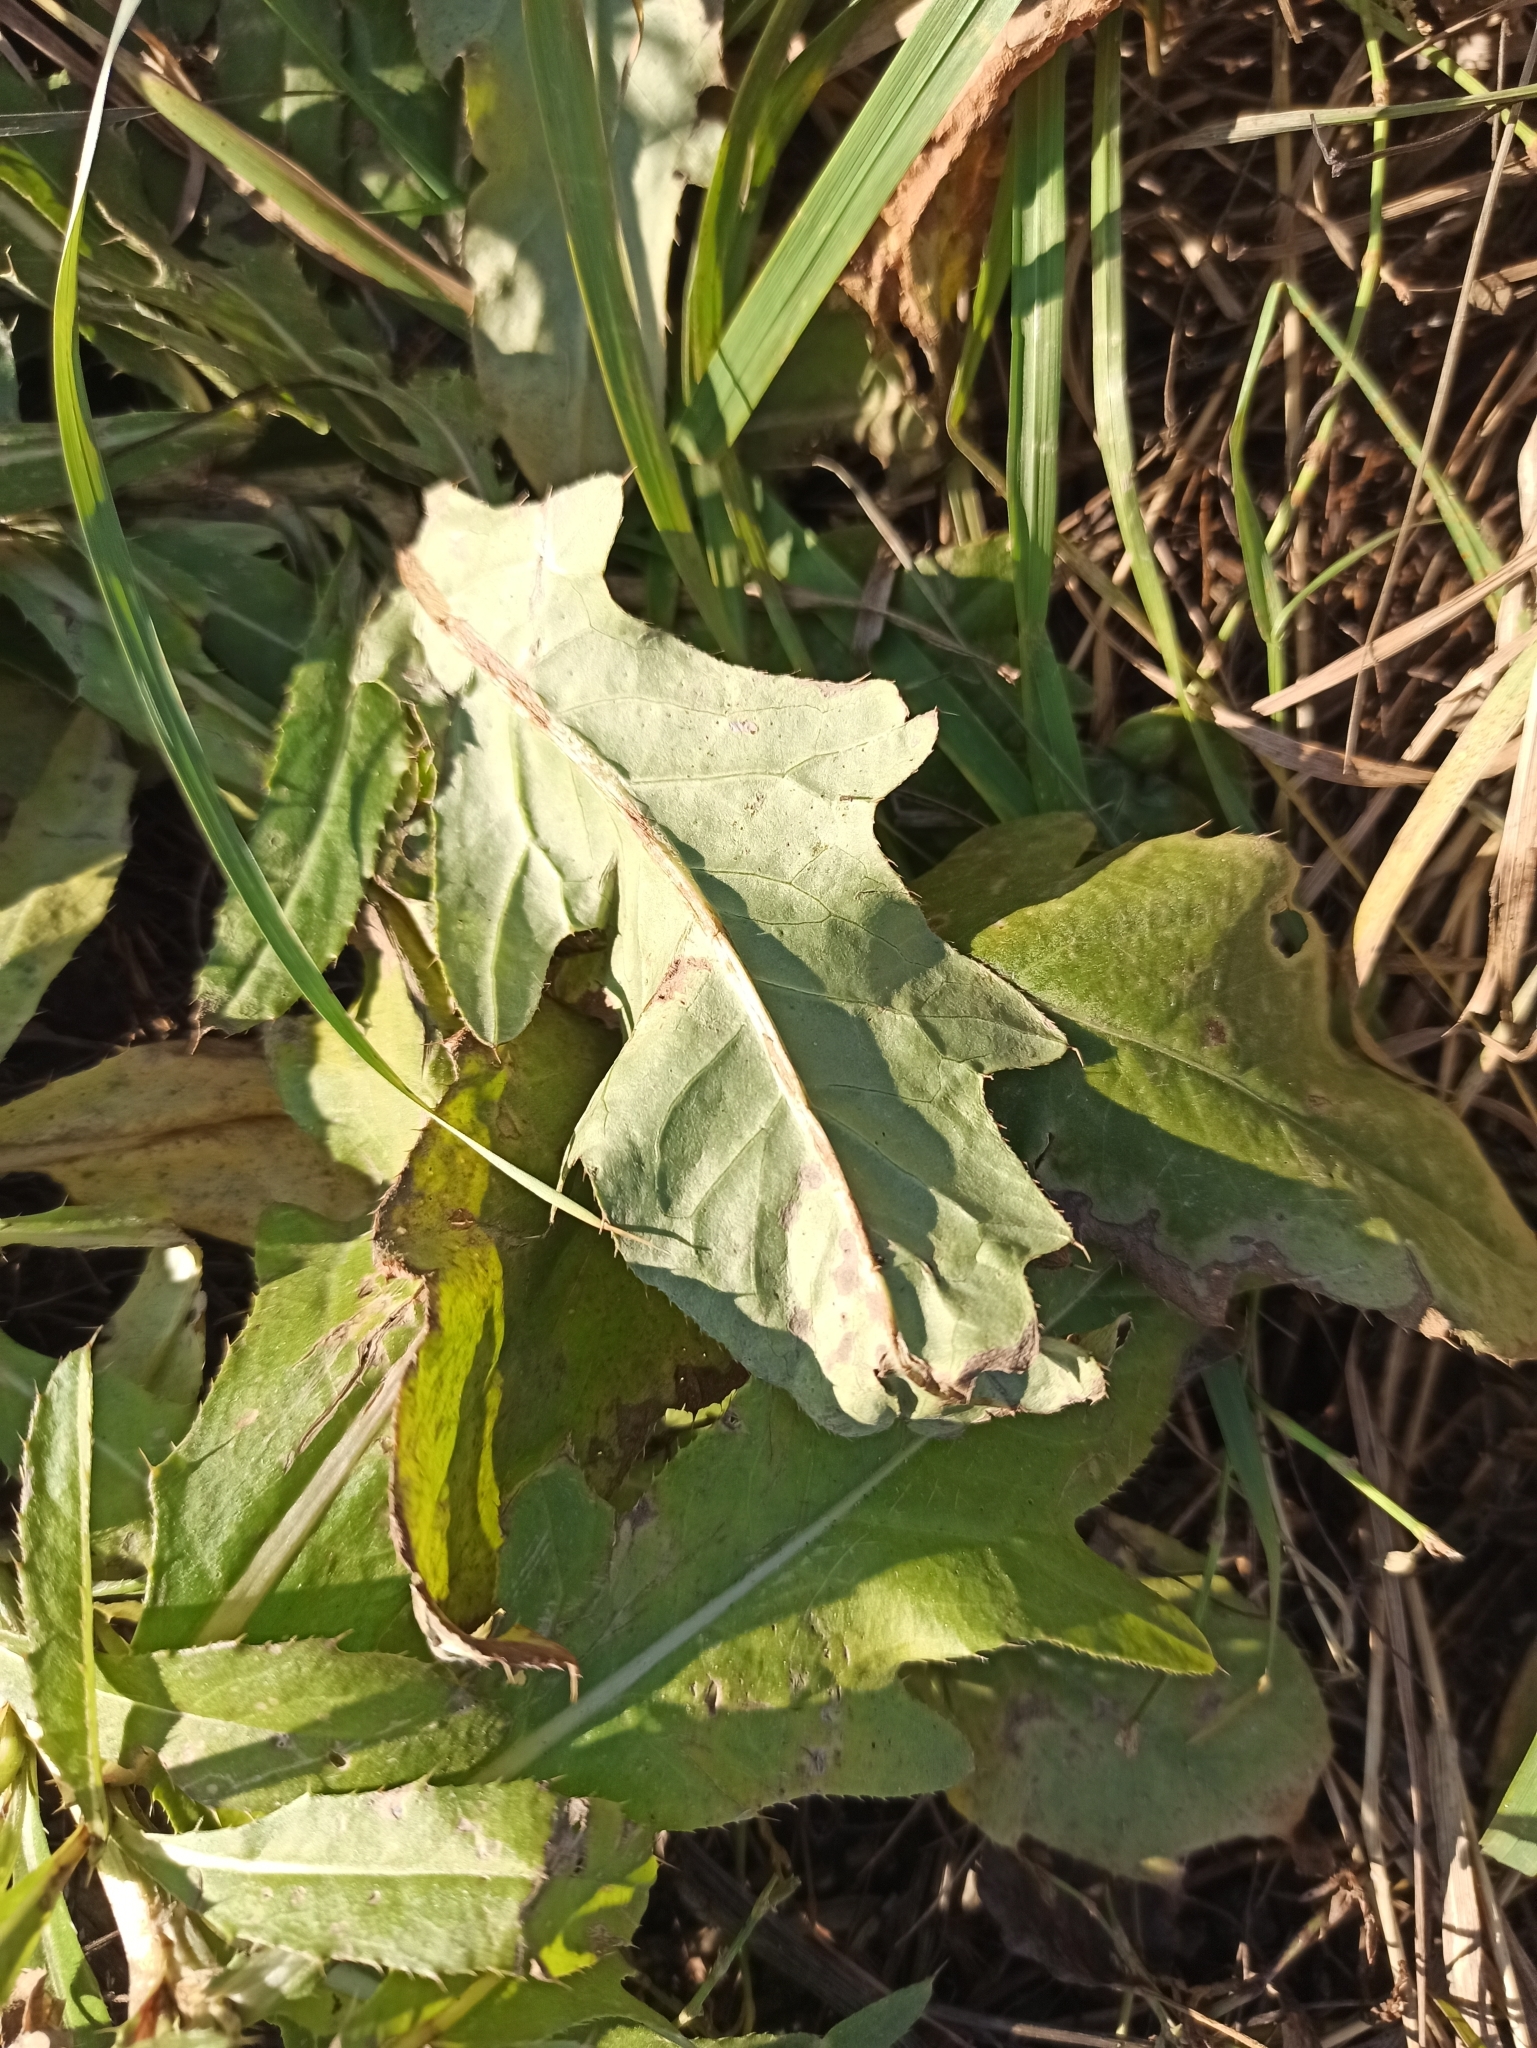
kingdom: Plantae
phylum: Tracheophyta
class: Magnoliopsida
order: Asterales
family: Asteraceae
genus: Cirsium
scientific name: Cirsium arvense
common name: Creeping thistle
